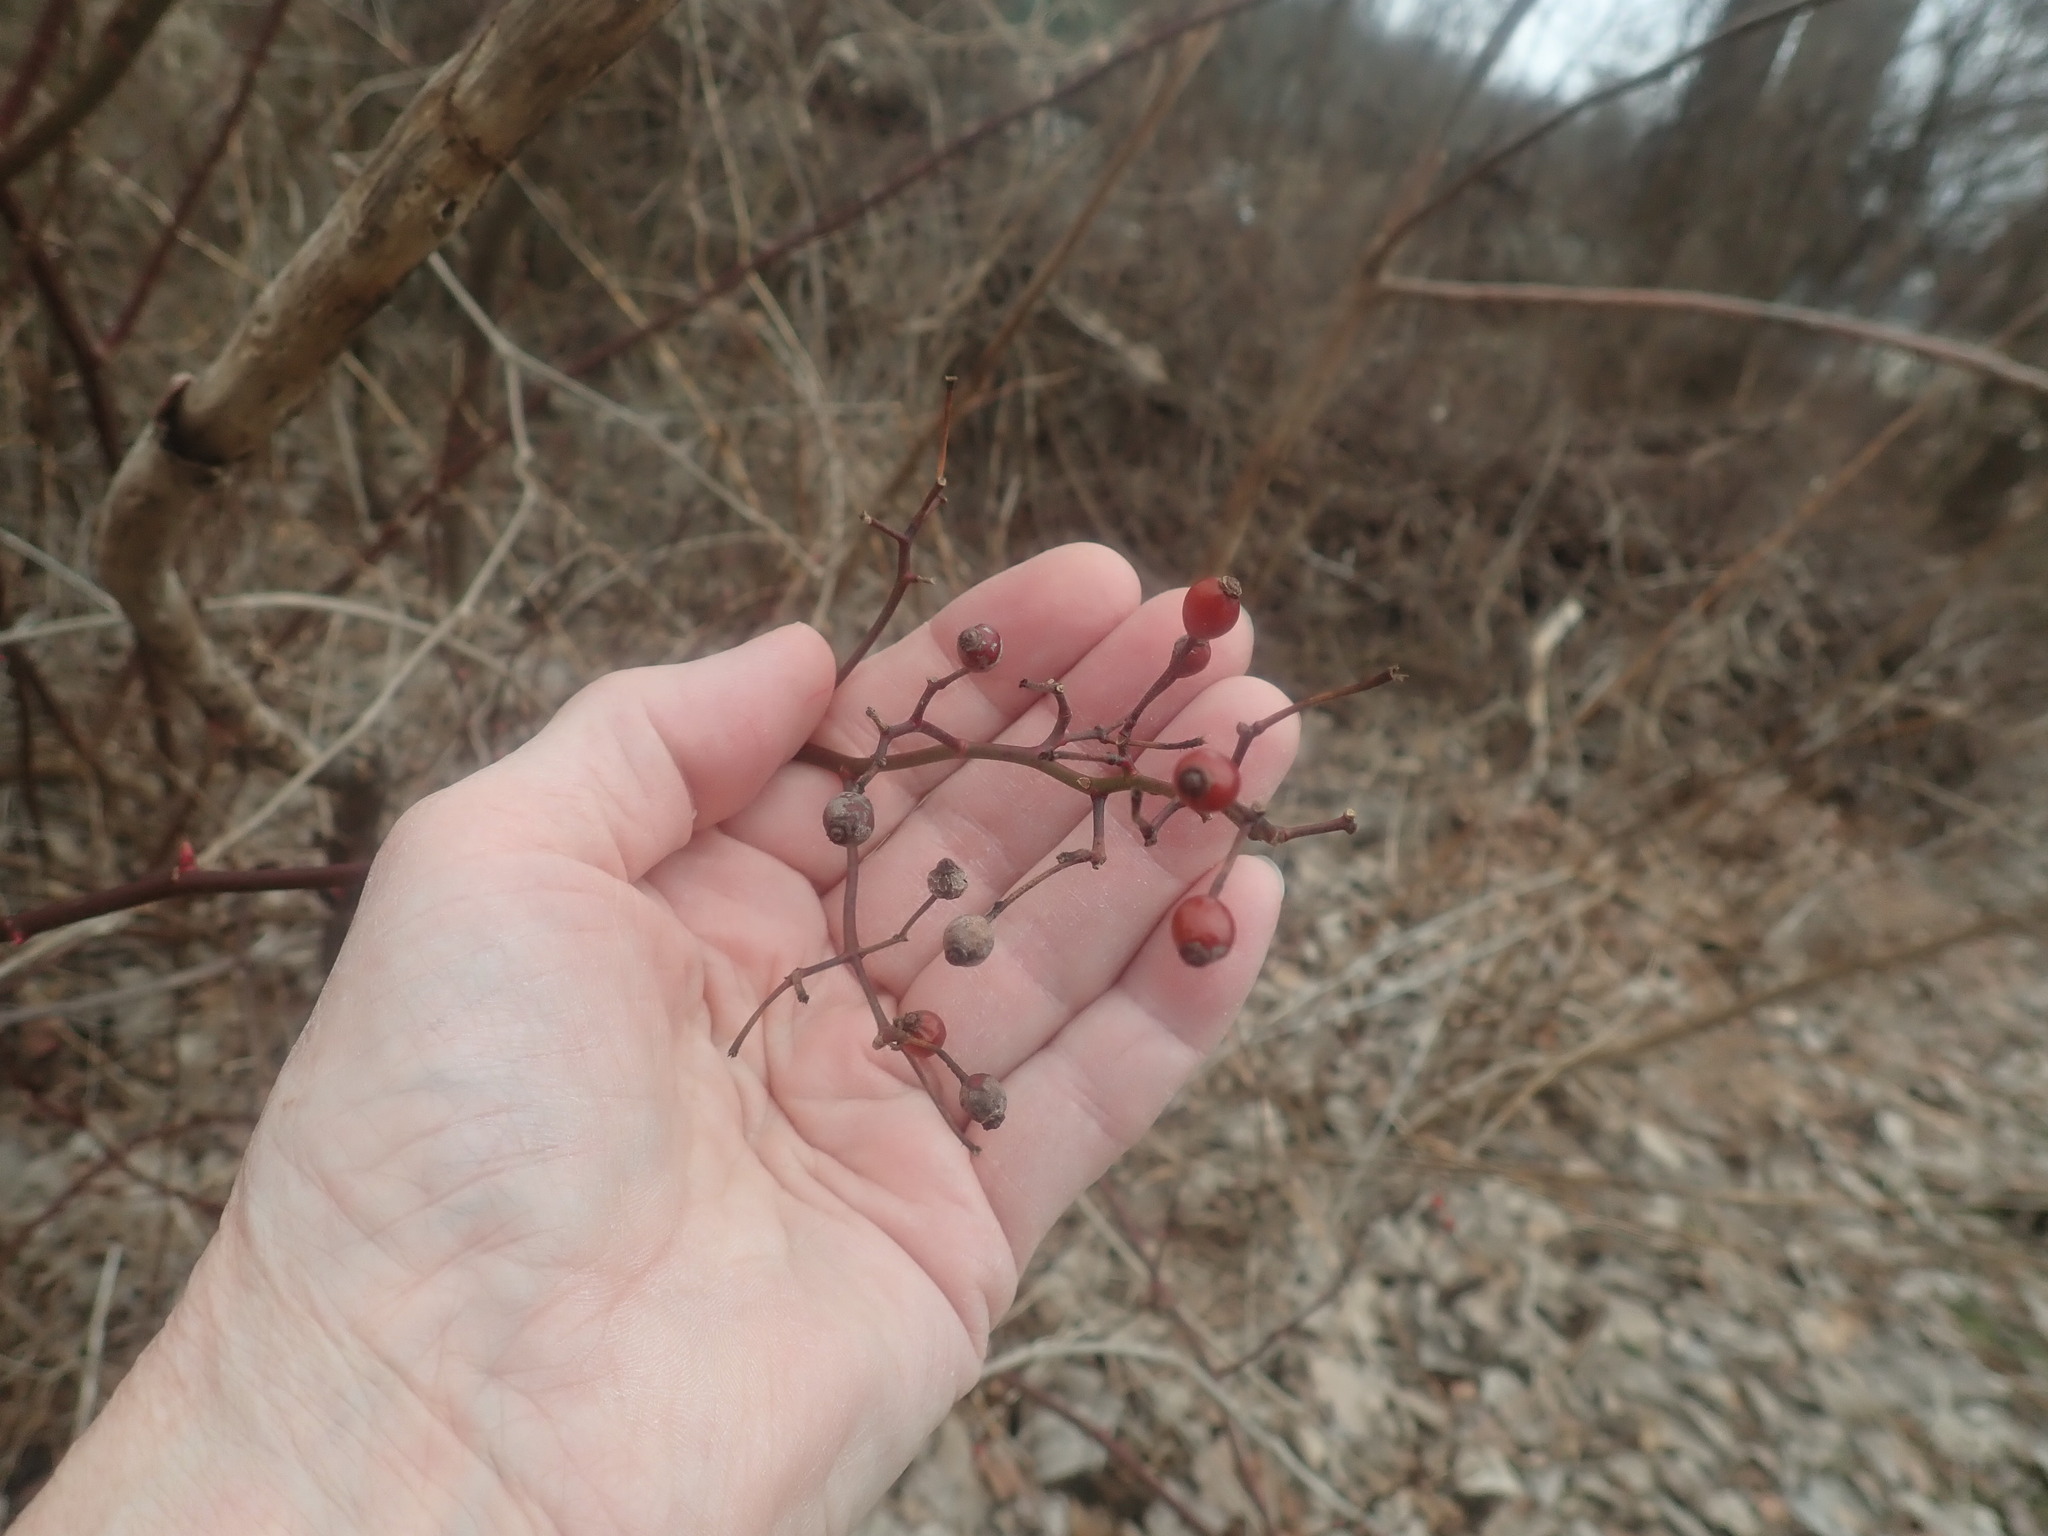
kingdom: Plantae
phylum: Tracheophyta
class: Magnoliopsida
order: Rosales
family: Rosaceae
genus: Rosa
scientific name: Rosa multiflora
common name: Multiflora rose
